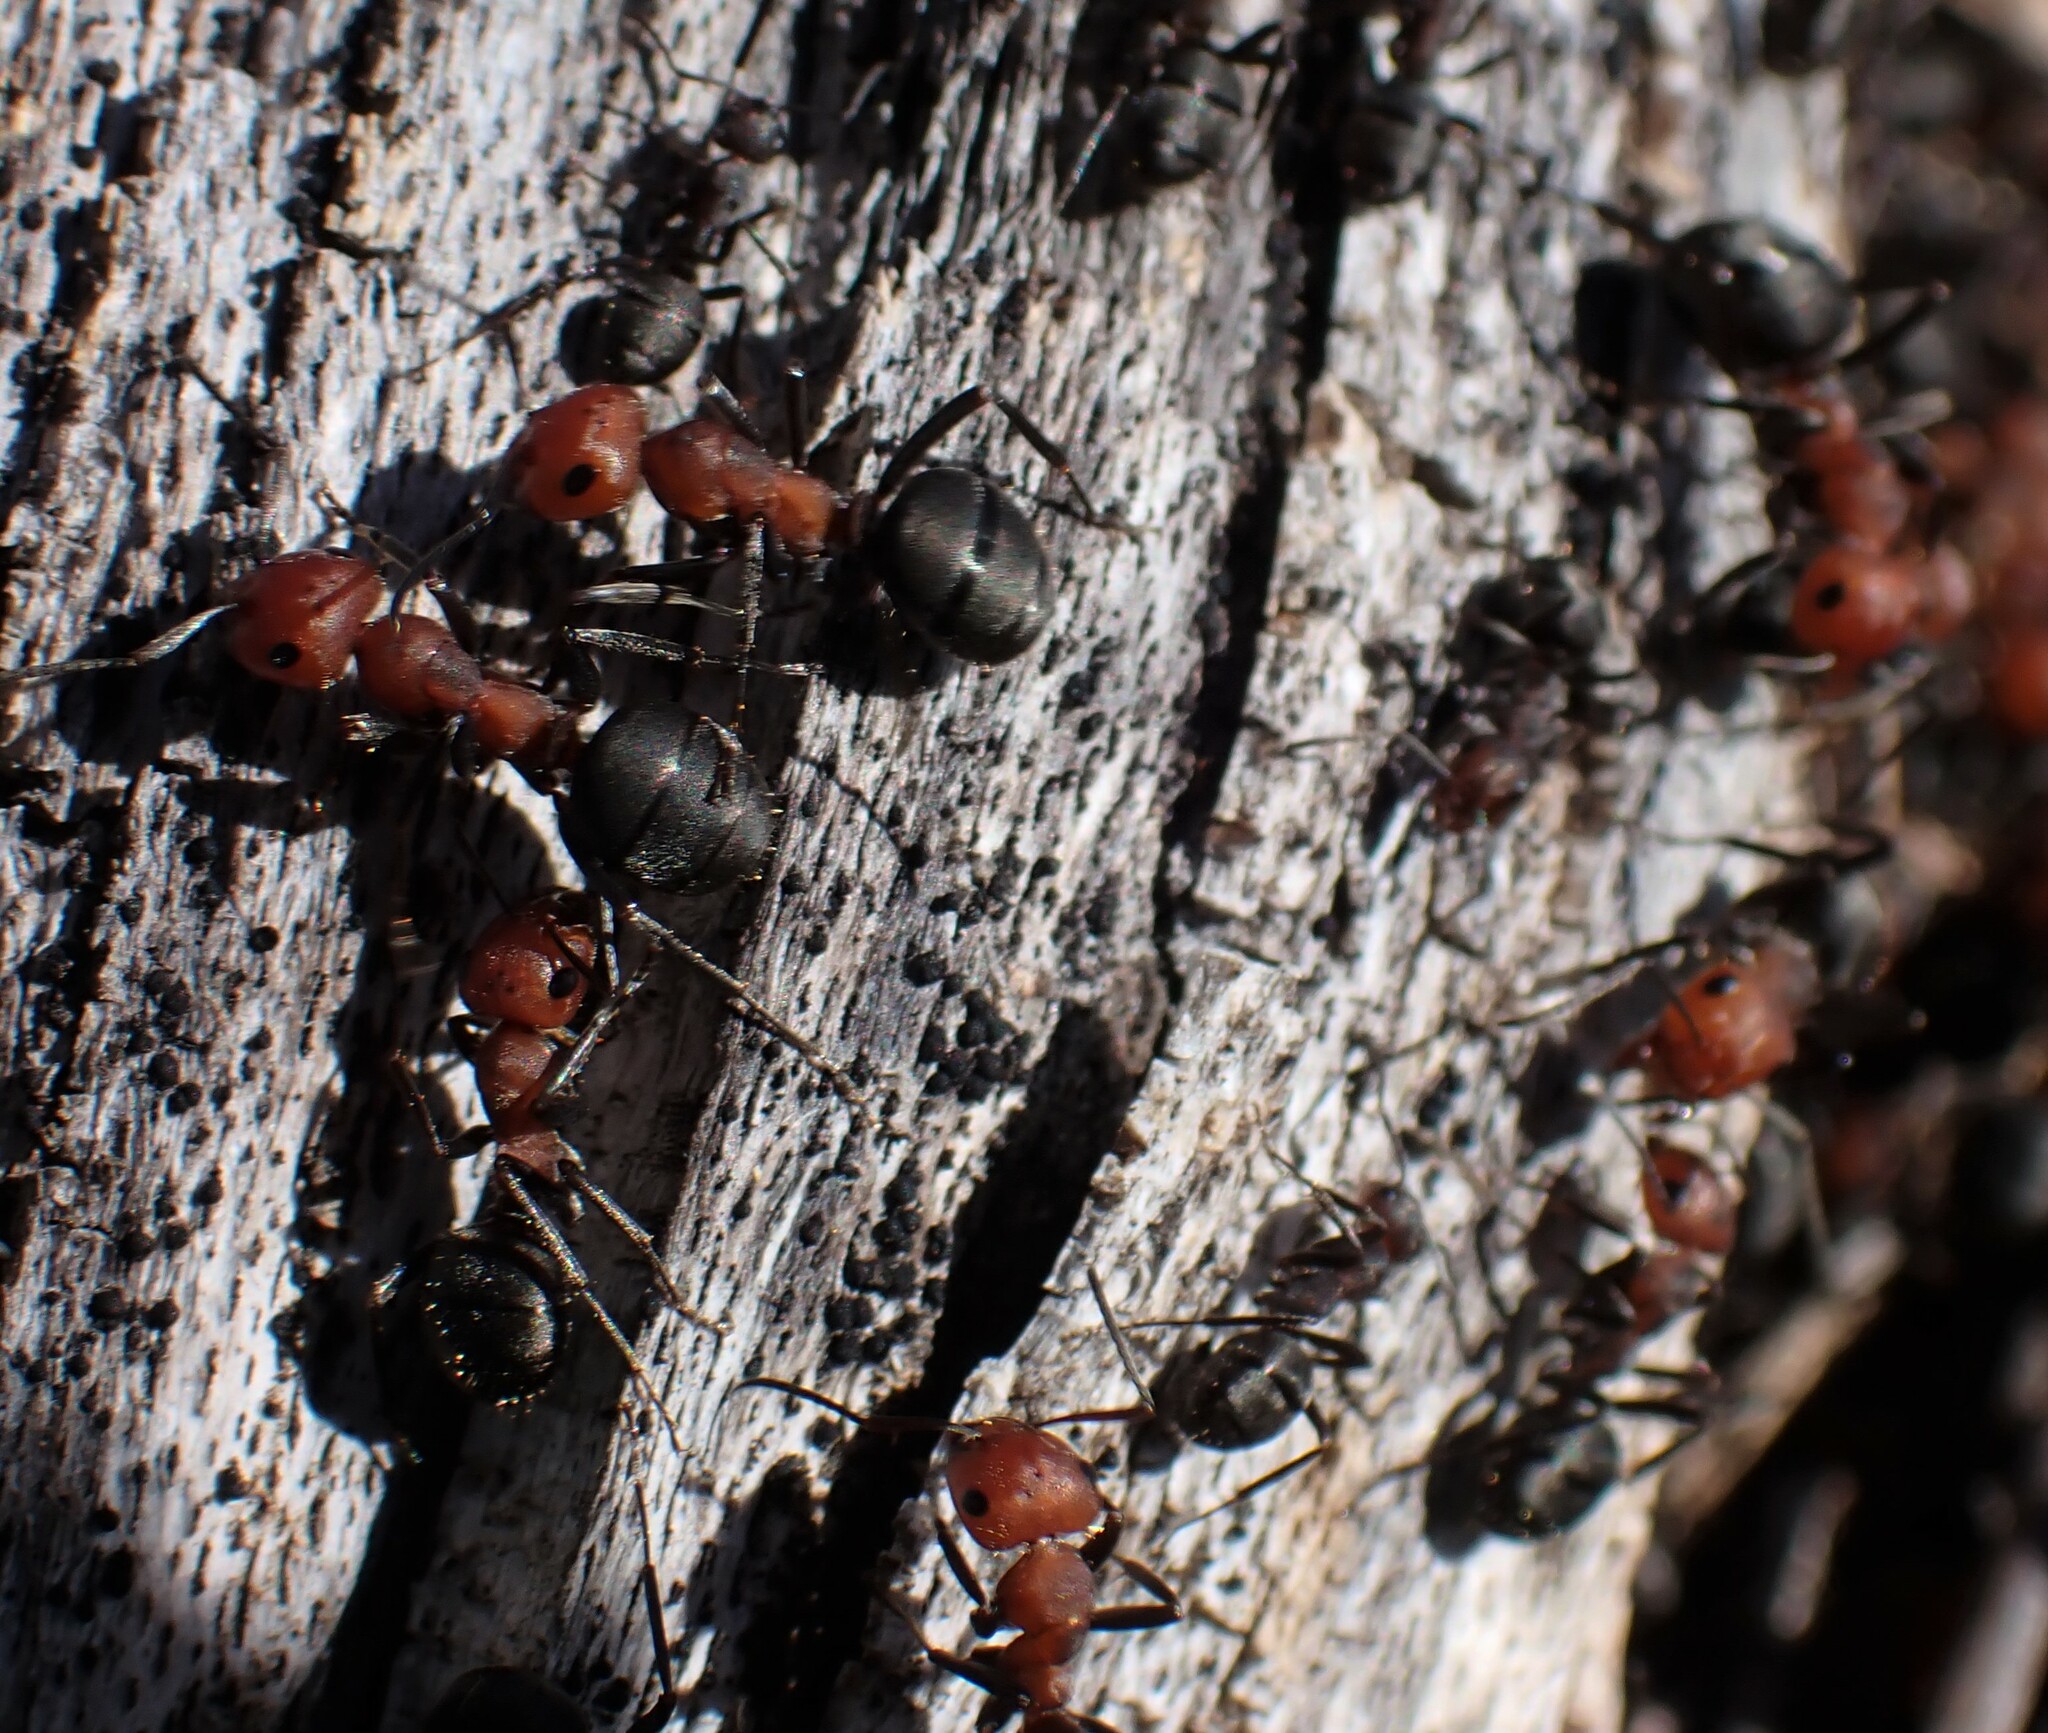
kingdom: Animalia
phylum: Arthropoda
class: Insecta
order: Hymenoptera
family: Formicidae
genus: Formica
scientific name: Formica obscuripes
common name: Western thatching ant
